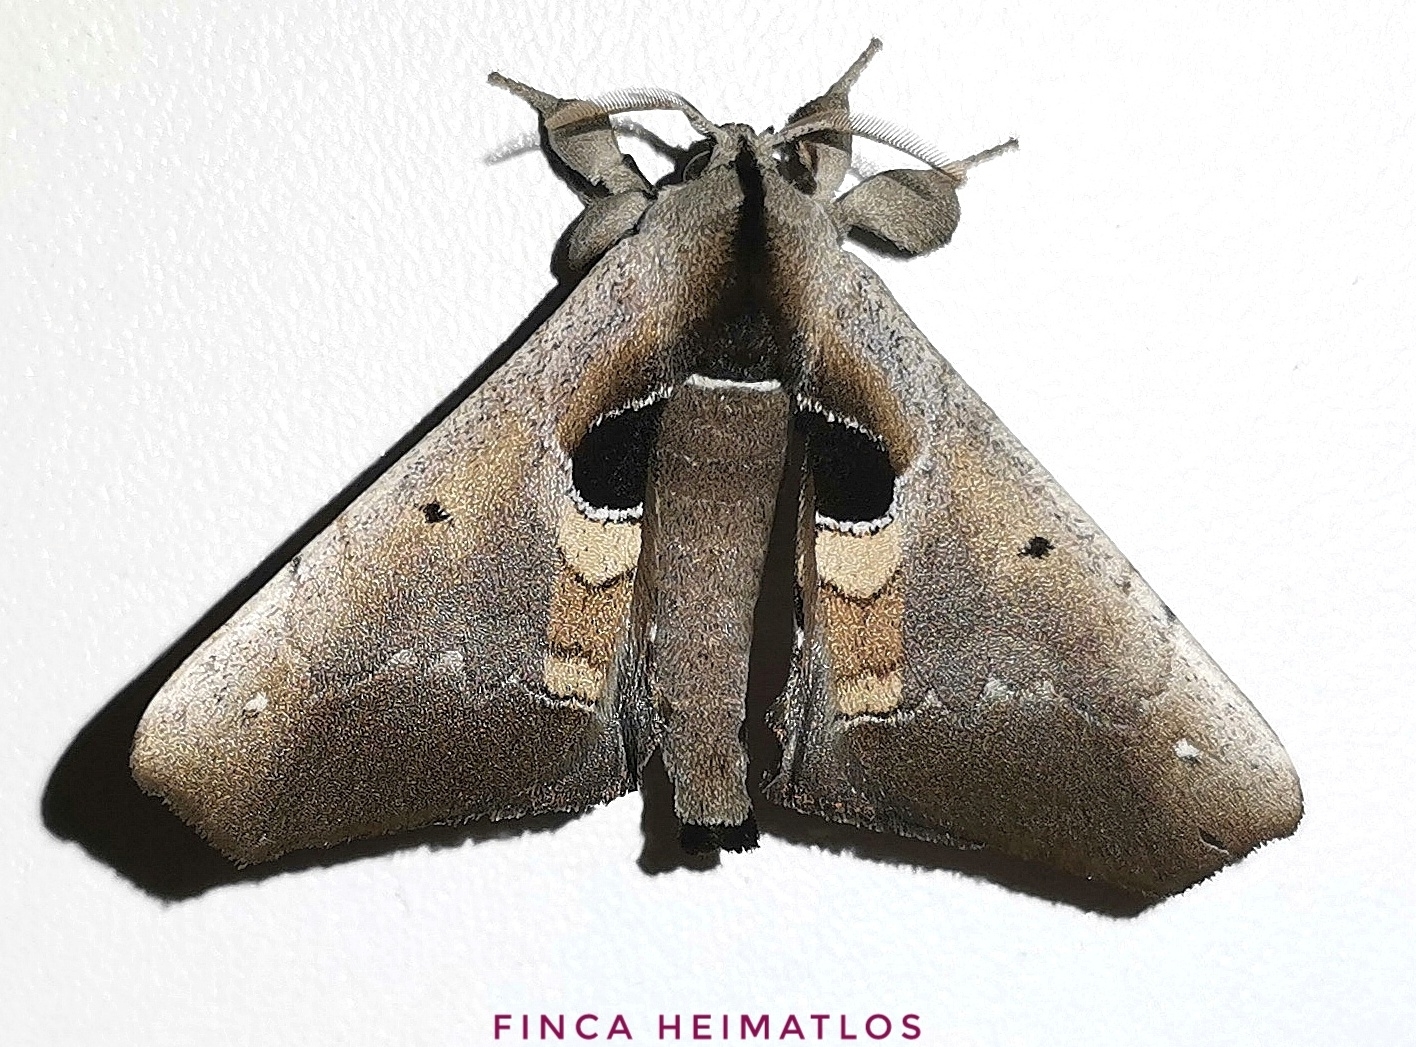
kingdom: Animalia
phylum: Arthropoda
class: Insecta
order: Lepidoptera
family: Apatelodidae
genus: Hygrochroa
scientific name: Hygrochroa Apatelodes cirna
